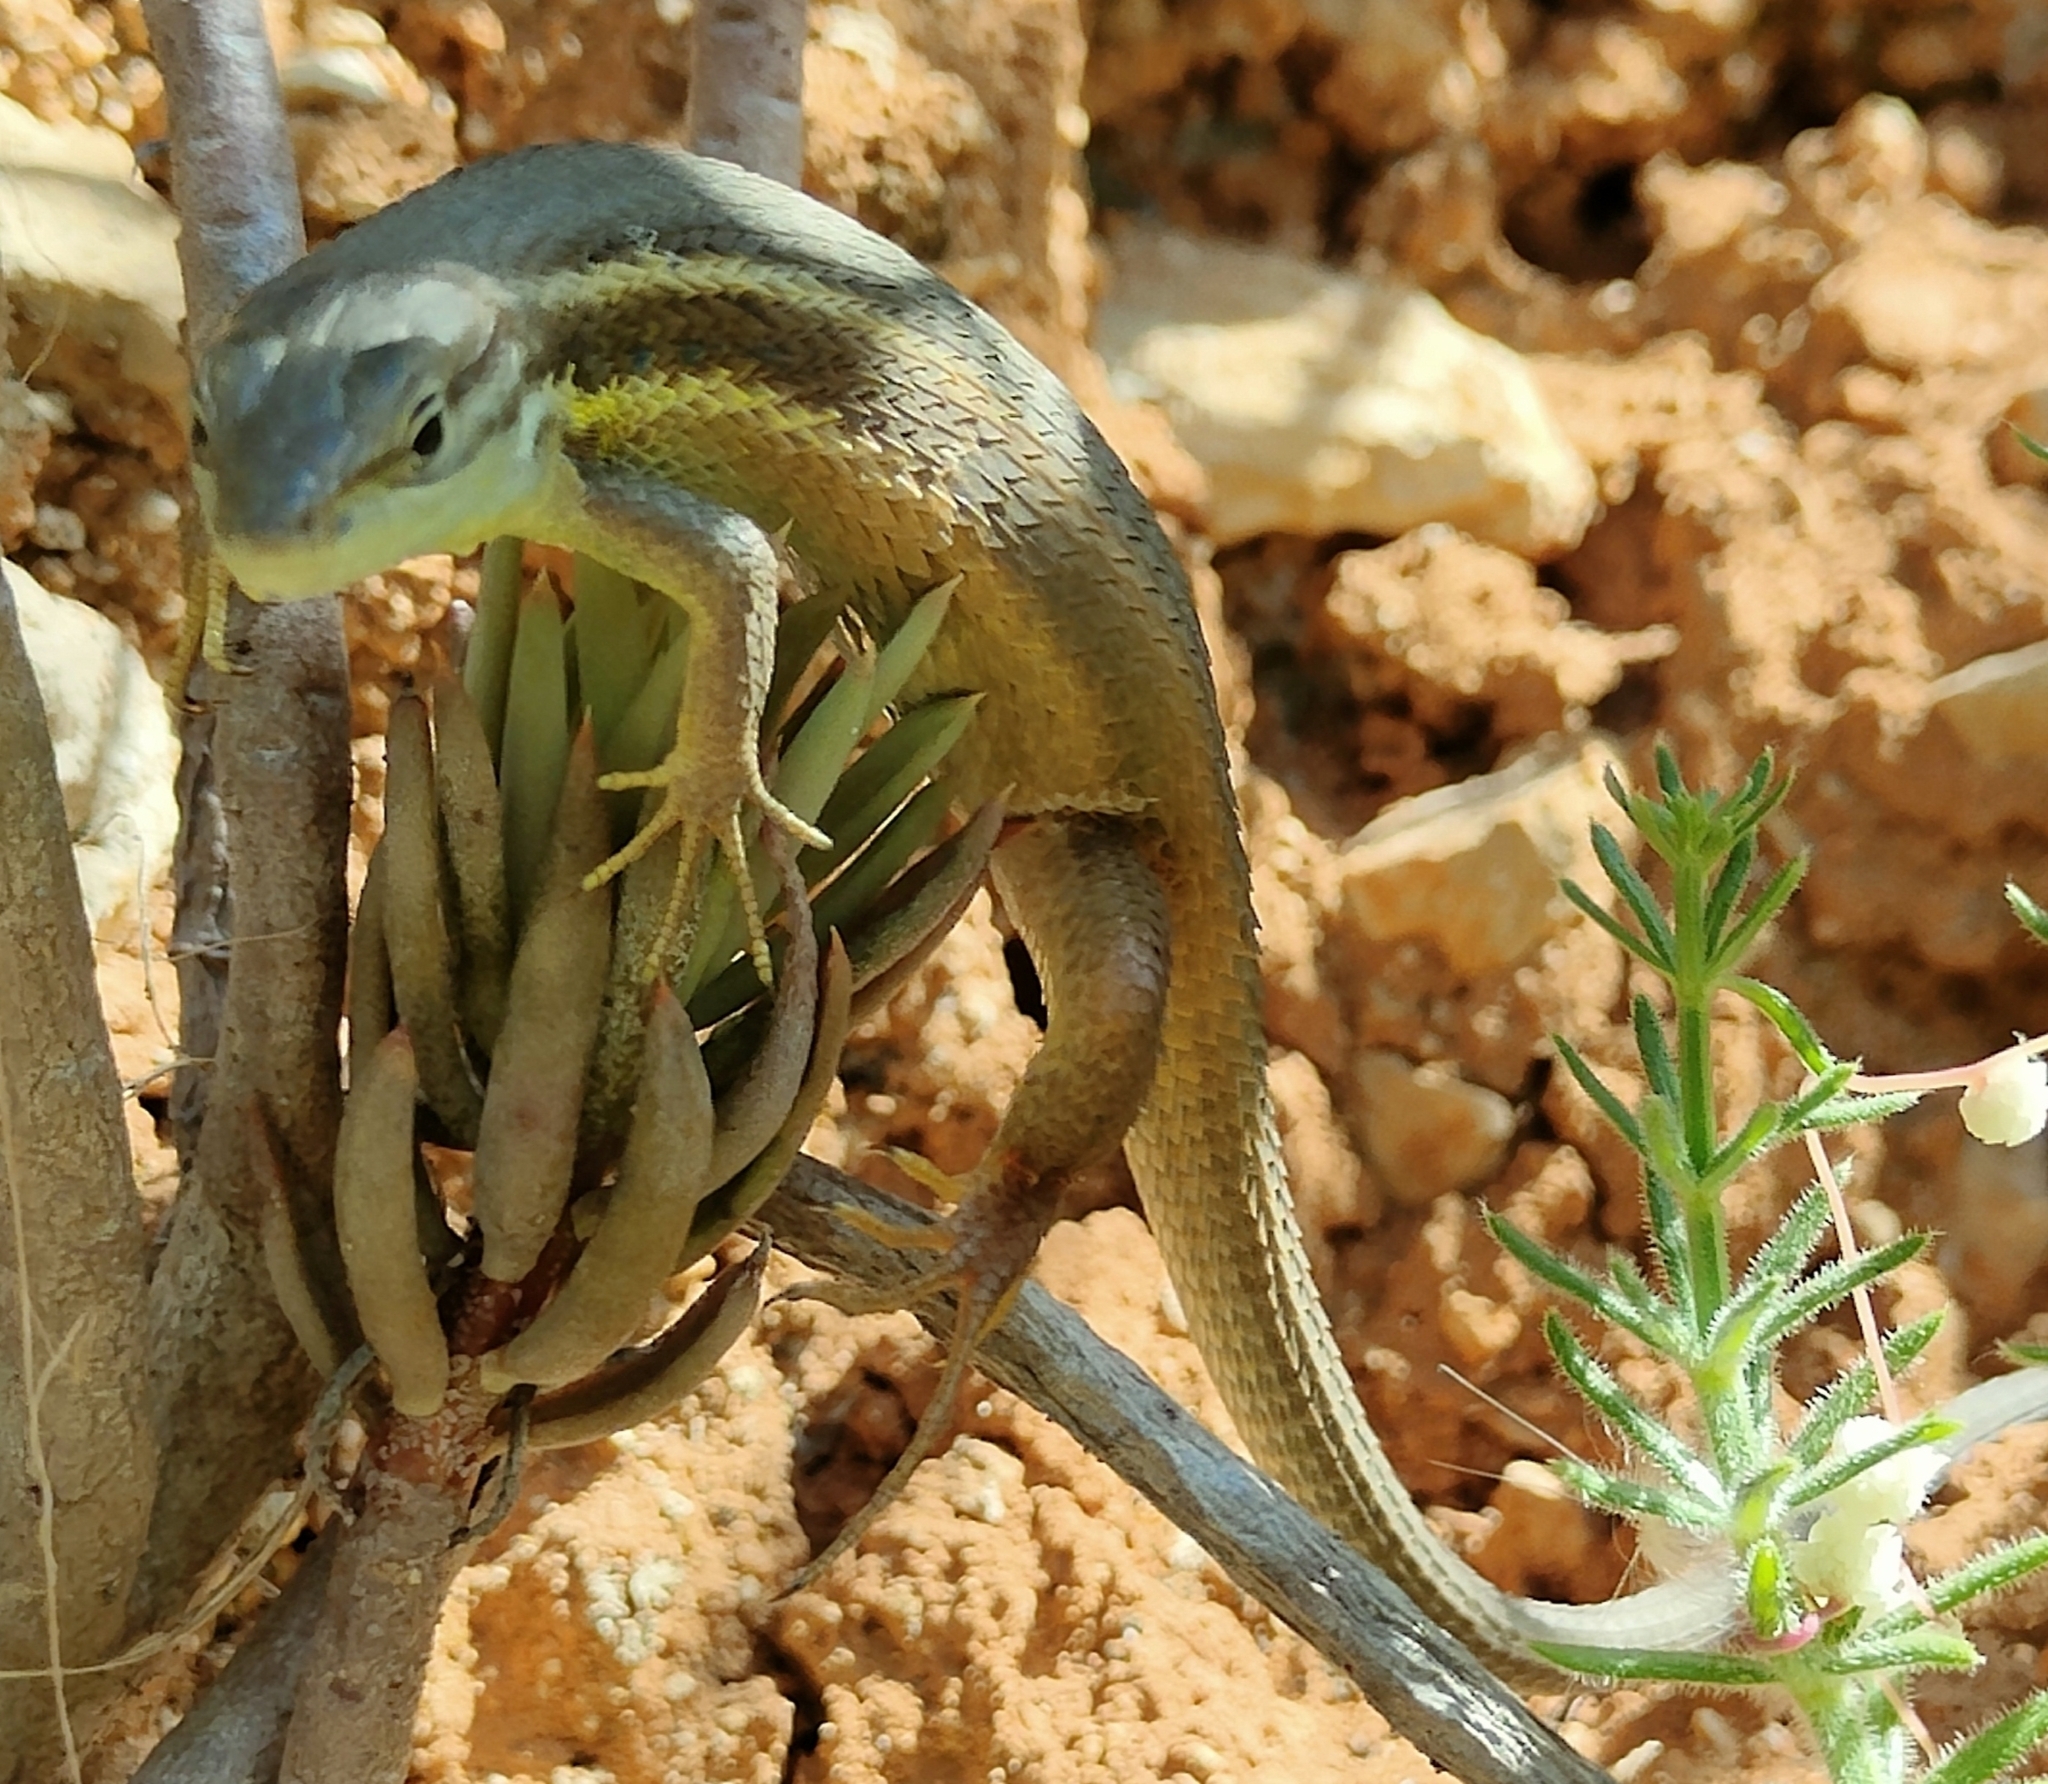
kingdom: Animalia
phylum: Chordata
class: Squamata
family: Lacertidae
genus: Psammodromus
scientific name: Psammodromus algirus
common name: Algerian psammodromus
